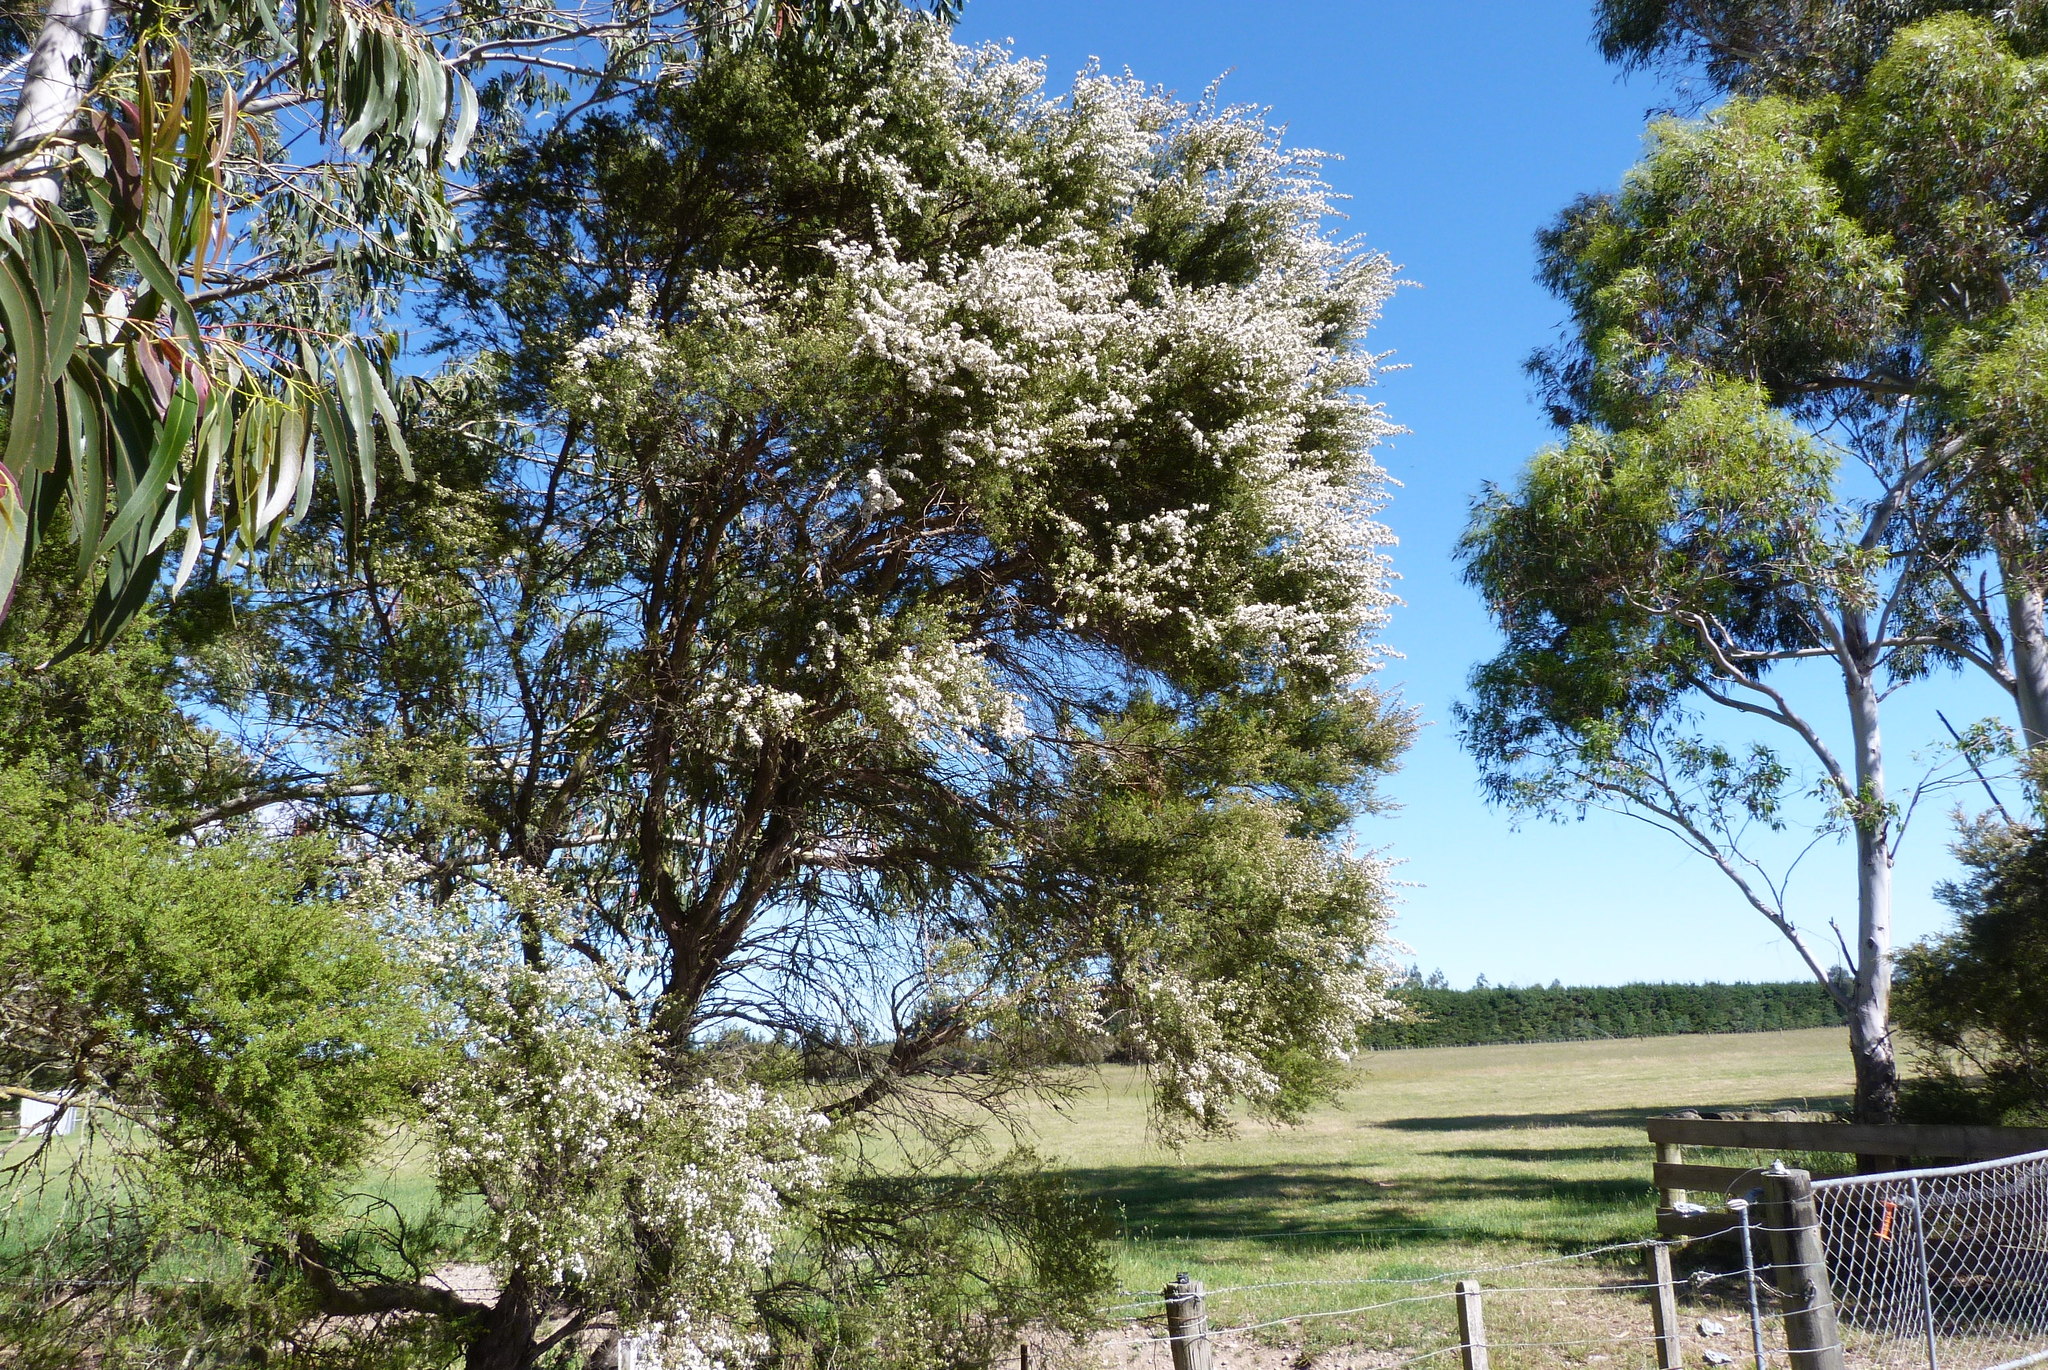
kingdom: Plantae
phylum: Tracheophyta
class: Magnoliopsida
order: Myrtales
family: Myrtaceae
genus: Kunzea
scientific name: Kunzea serotina
